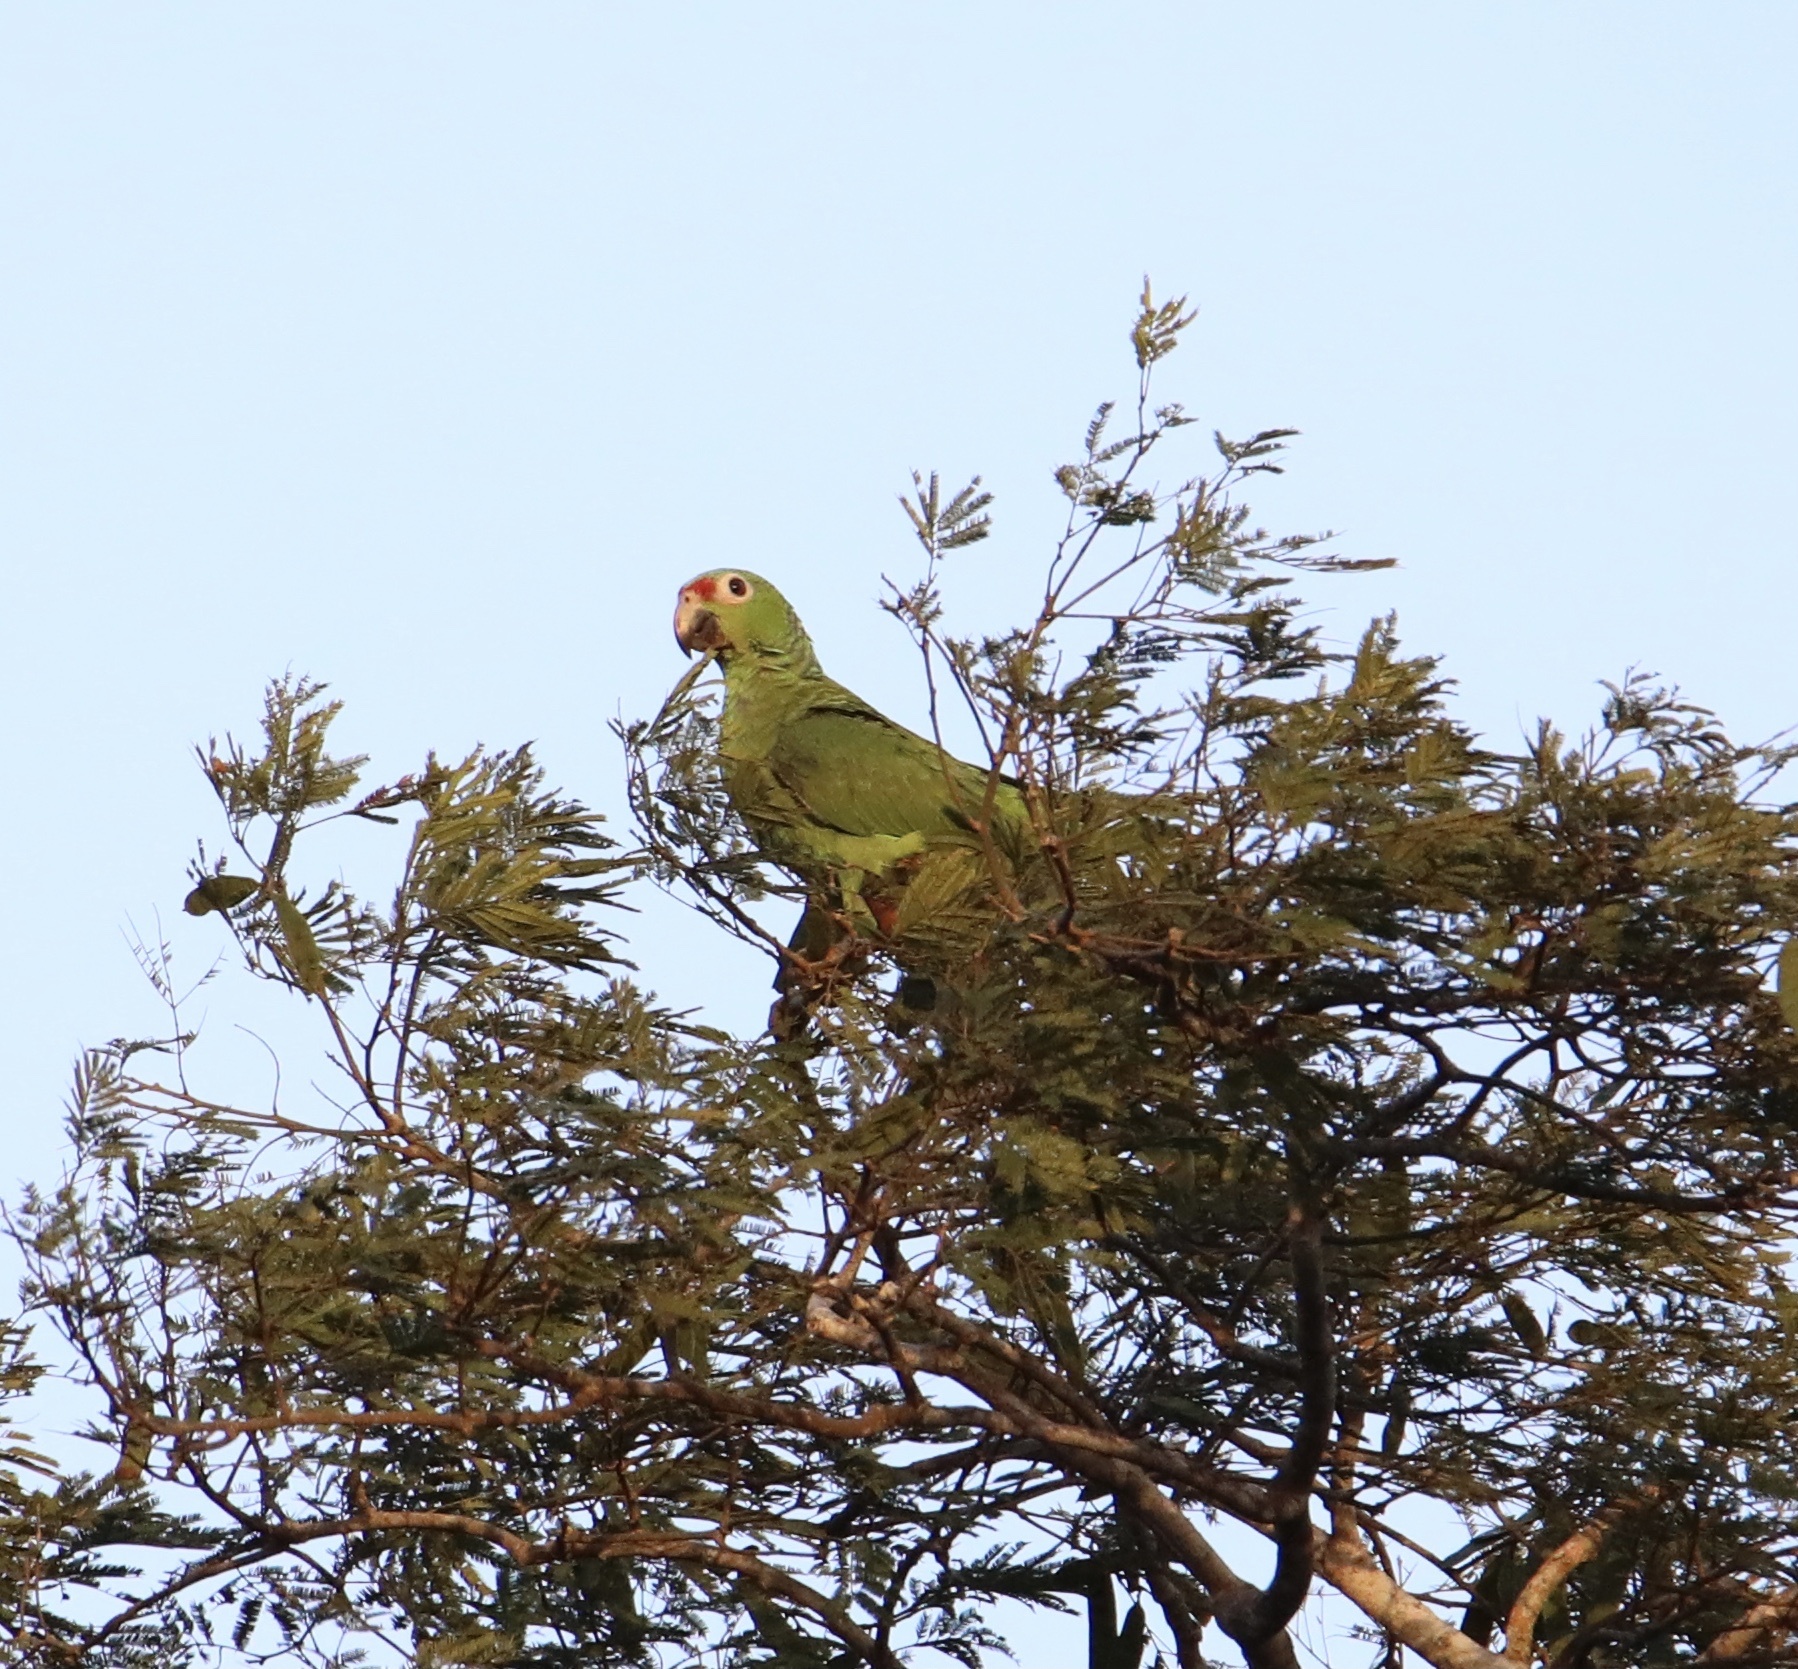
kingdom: Animalia
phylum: Chordata
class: Aves
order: Psittaciformes
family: Psittacidae
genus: Amazona
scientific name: Amazona autumnalis
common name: Red-lored amazon
